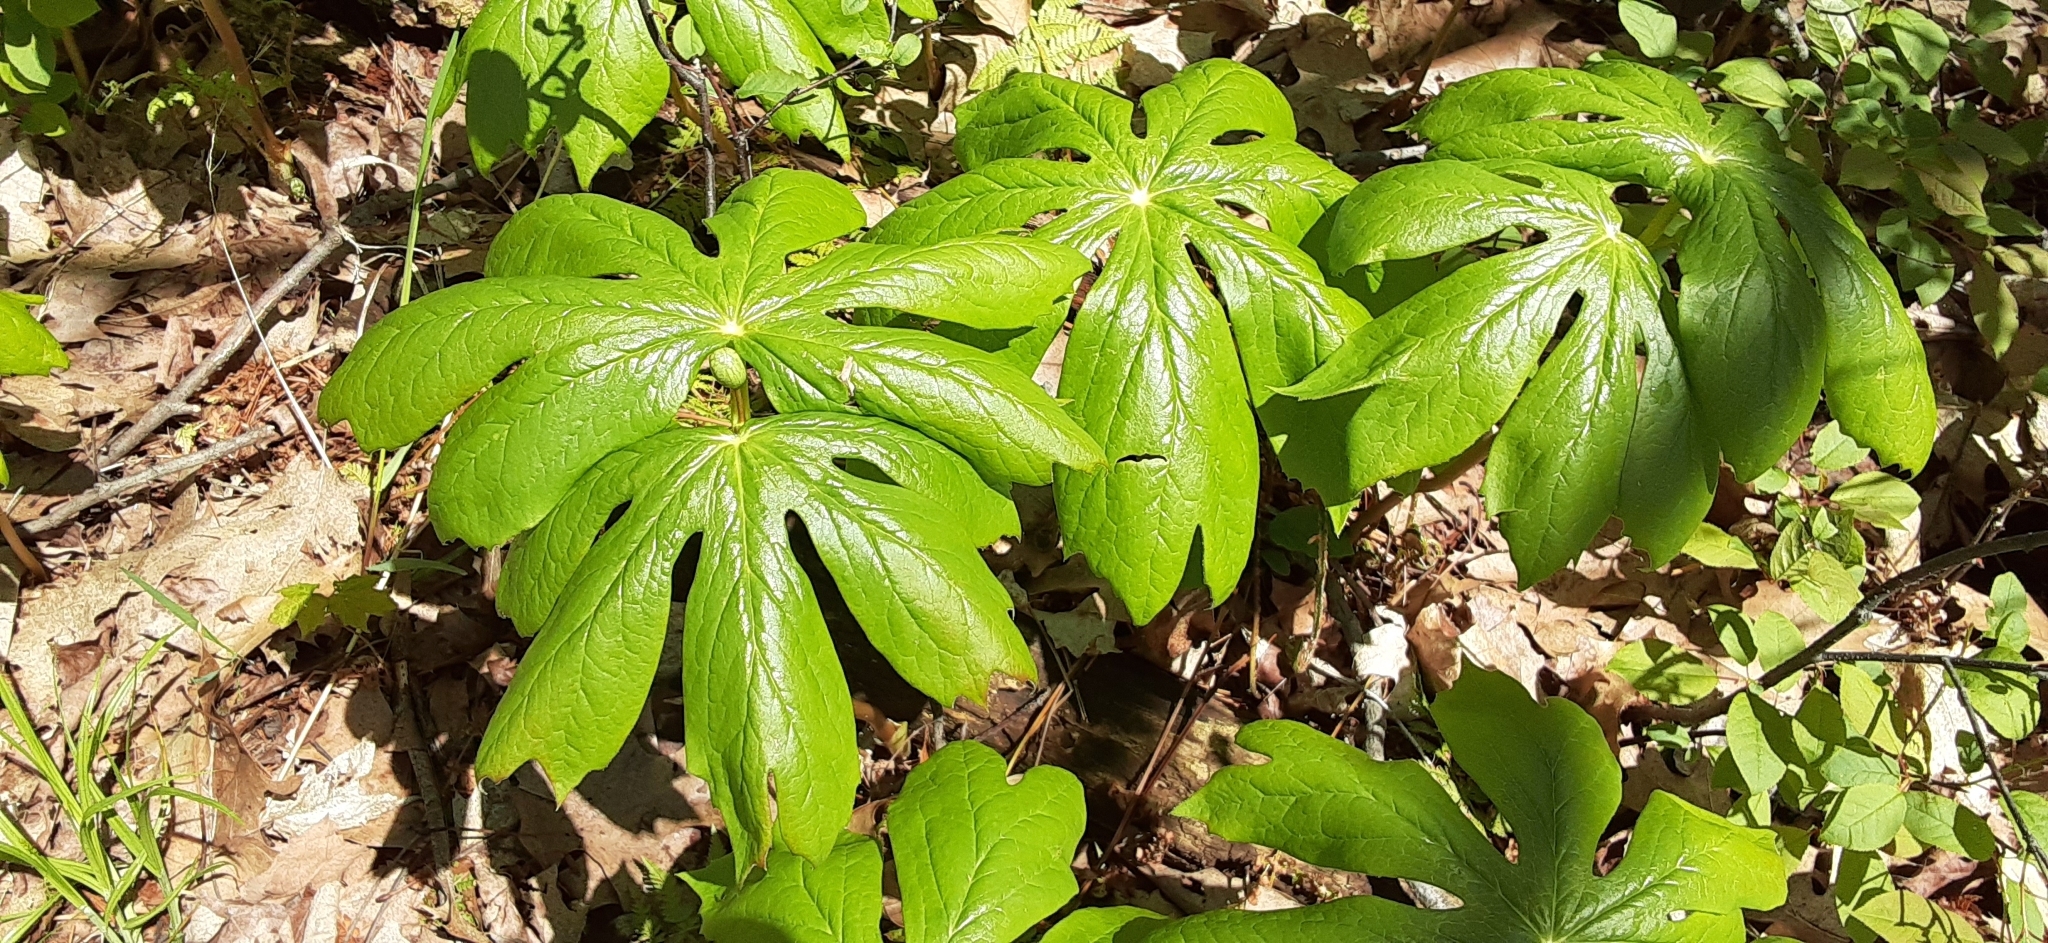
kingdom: Plantae
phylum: Tracheophyta
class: Magnoliopsida
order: Ranunculales
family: Berberidaceae
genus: Podophyllum
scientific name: Podophyllum peltatum
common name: Wild mandrake
